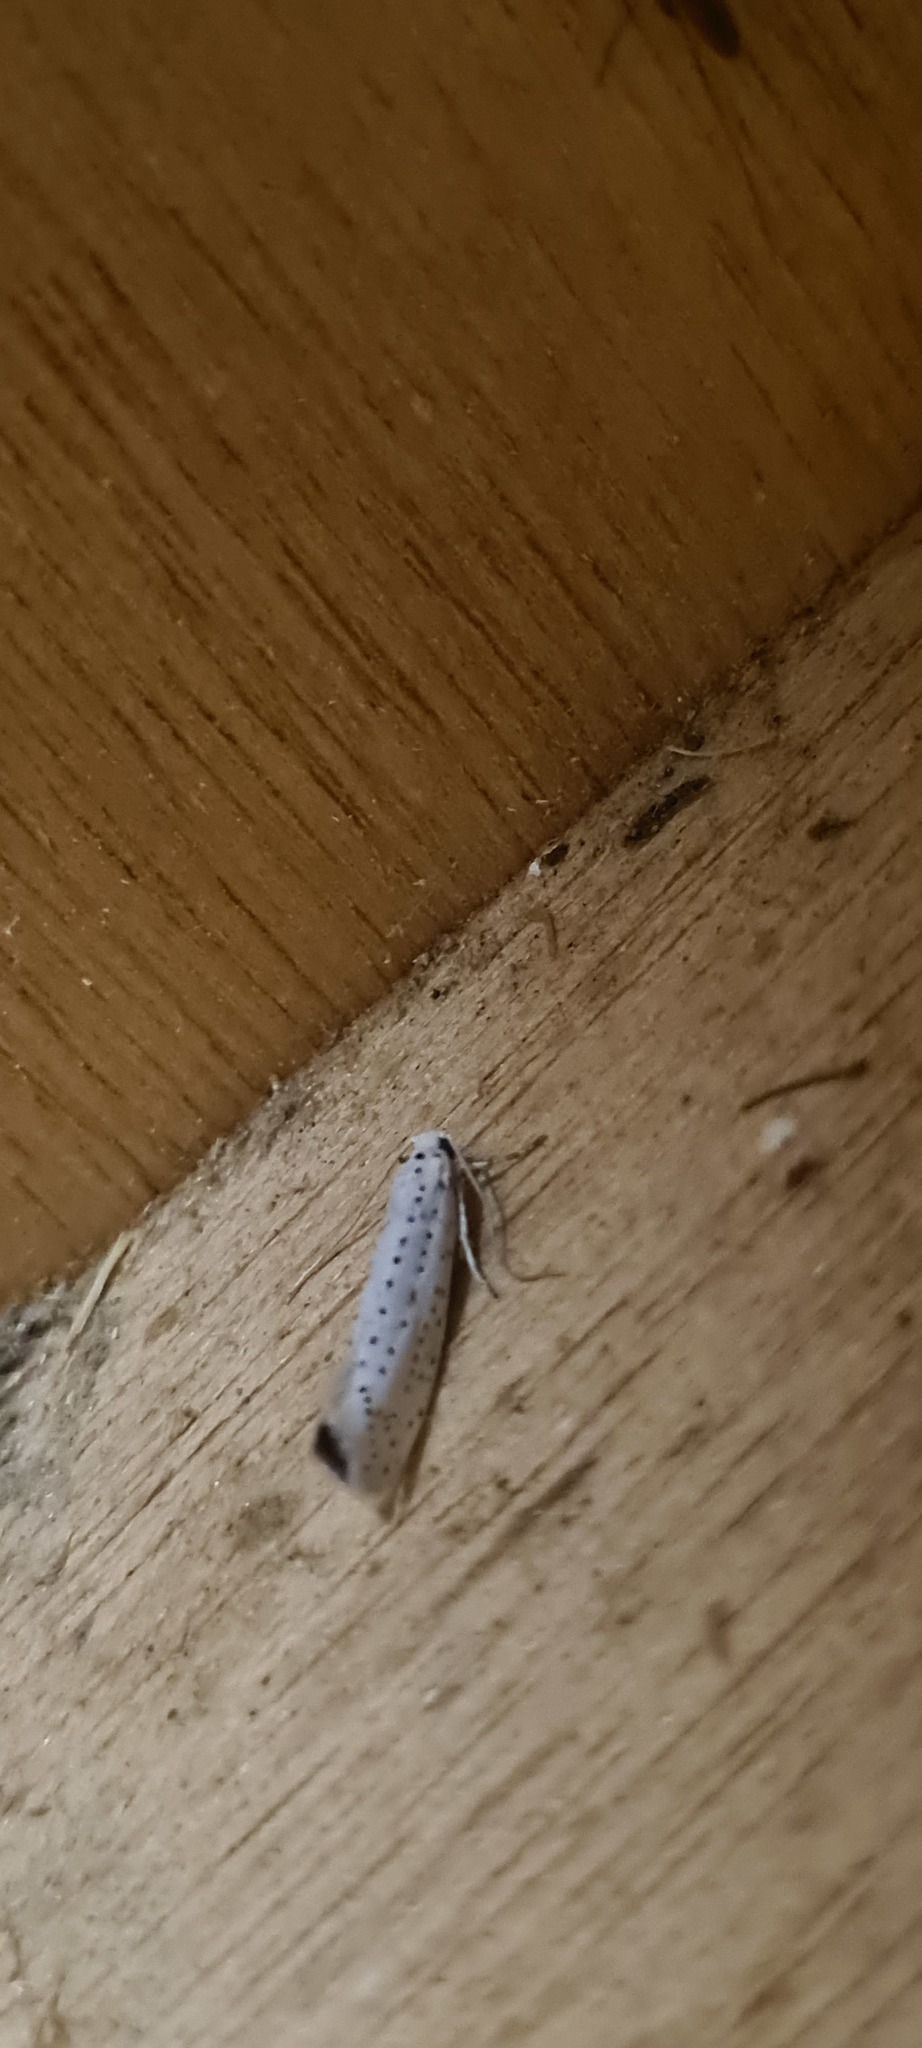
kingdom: Animalia
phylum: Arthropoda
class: Insecta
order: Lepidoptera
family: Yponomeutidae
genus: Yponomeuta
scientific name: Yponomeuta evonymella
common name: Bird-cherry ermine
